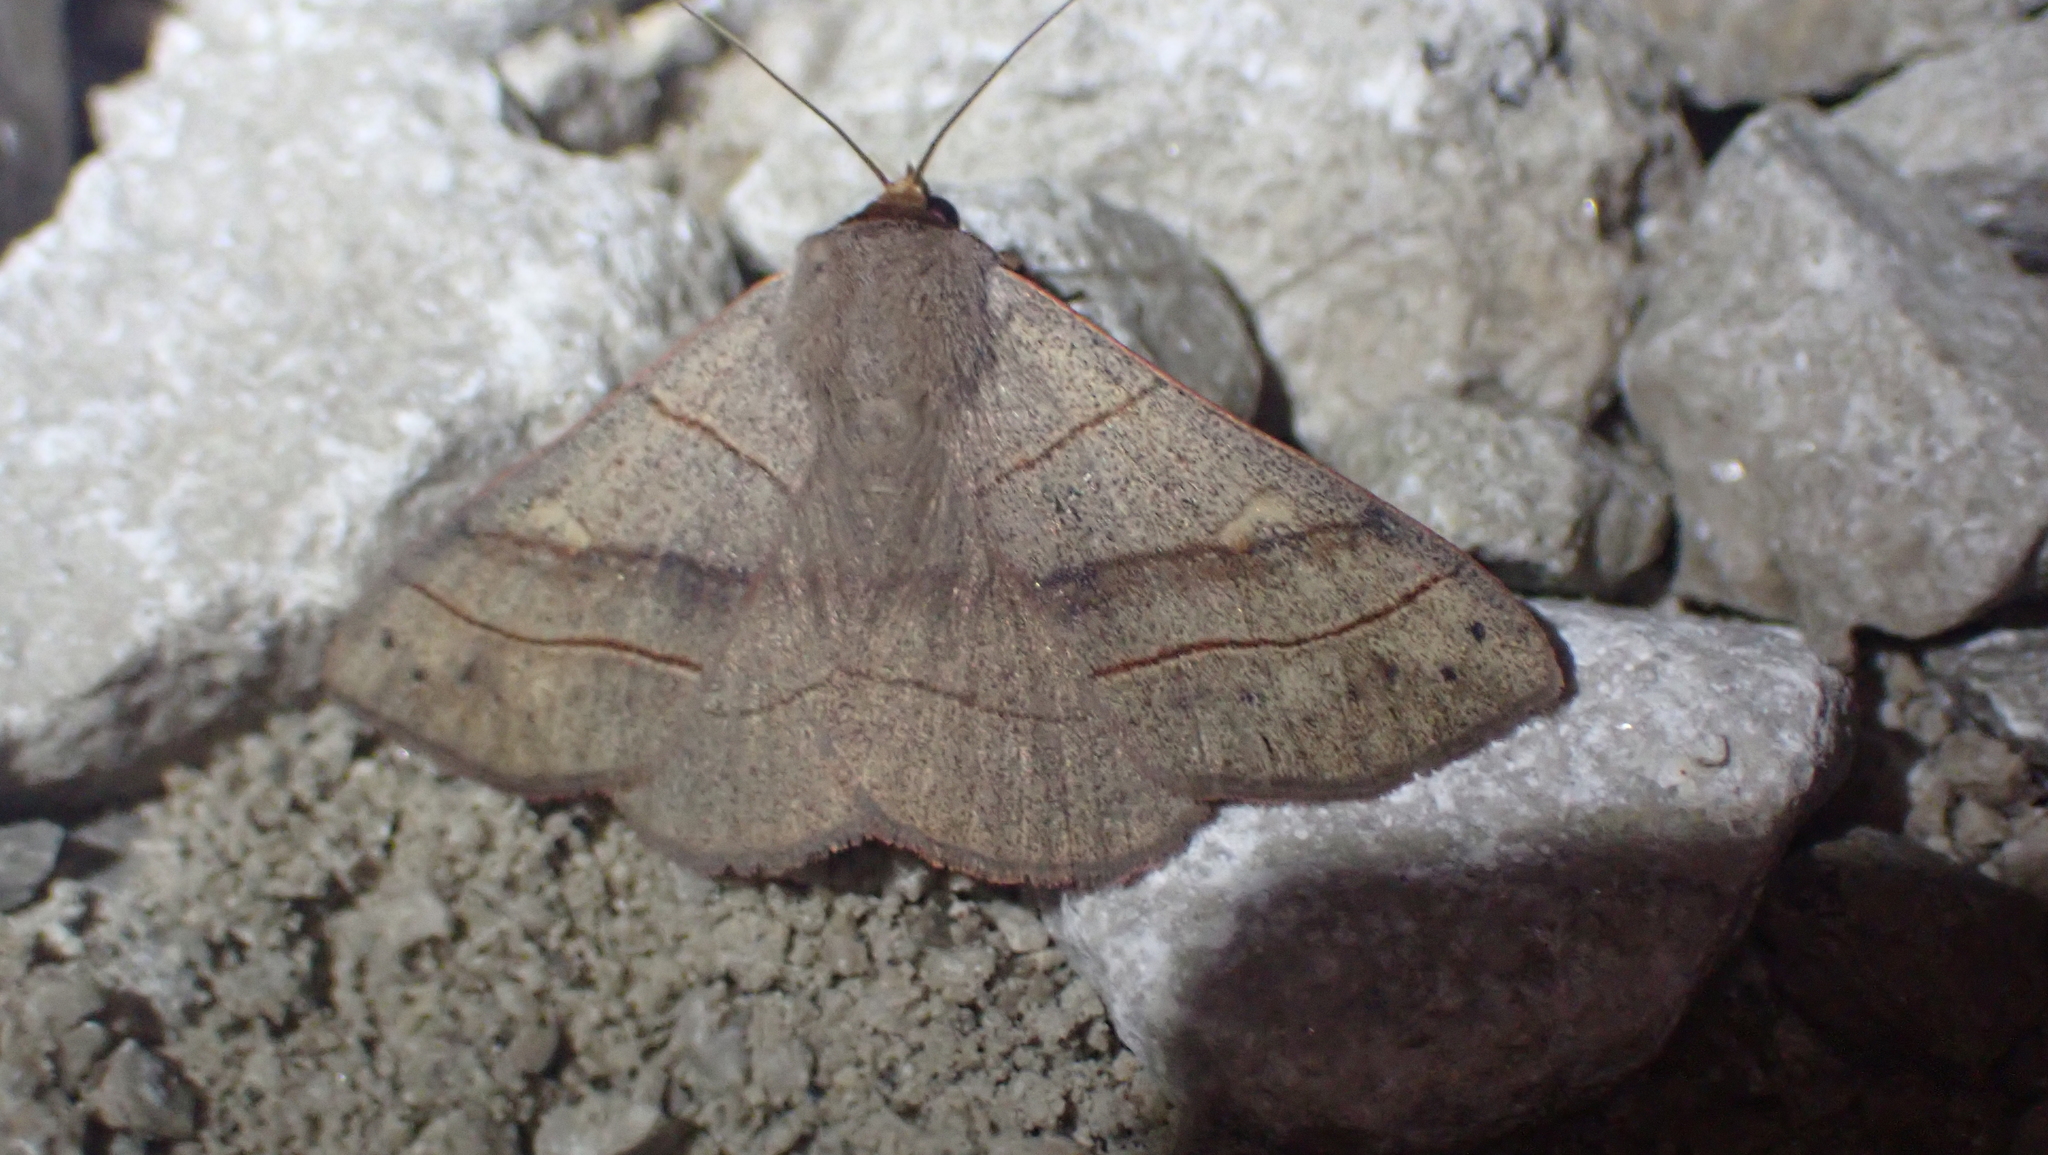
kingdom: Animalia
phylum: Arthropoda
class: Insecta
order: Lepidoptera
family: Erebidae
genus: Panopoda
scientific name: Panopoda rufimargo
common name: Red-lined panopoda moth
